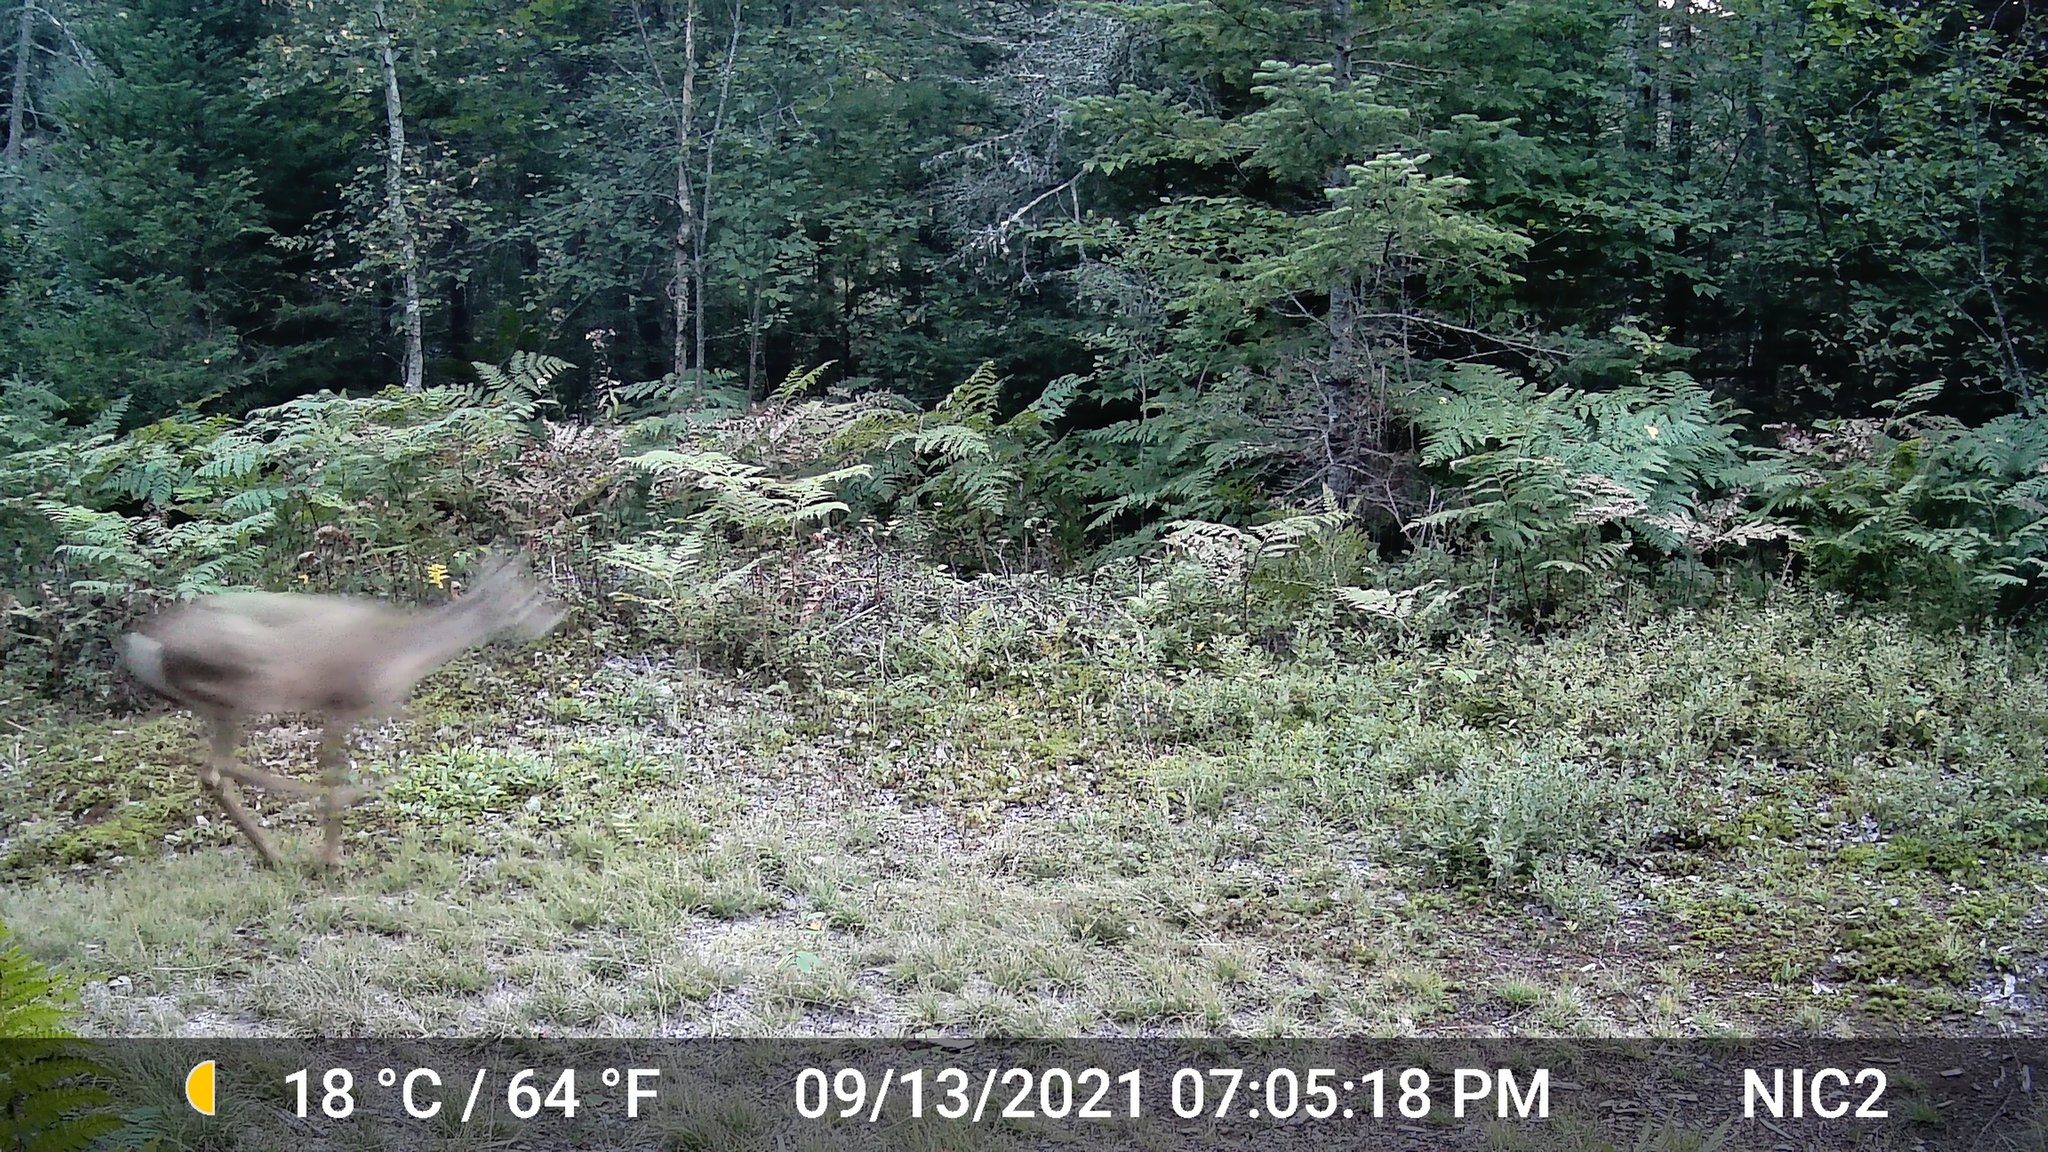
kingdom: Animalia
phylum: Chordata
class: Mammalia
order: Artiodactyla
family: Cervidae
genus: Odocoileus
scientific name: Odocoileus virginianus
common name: White-tailed deer
